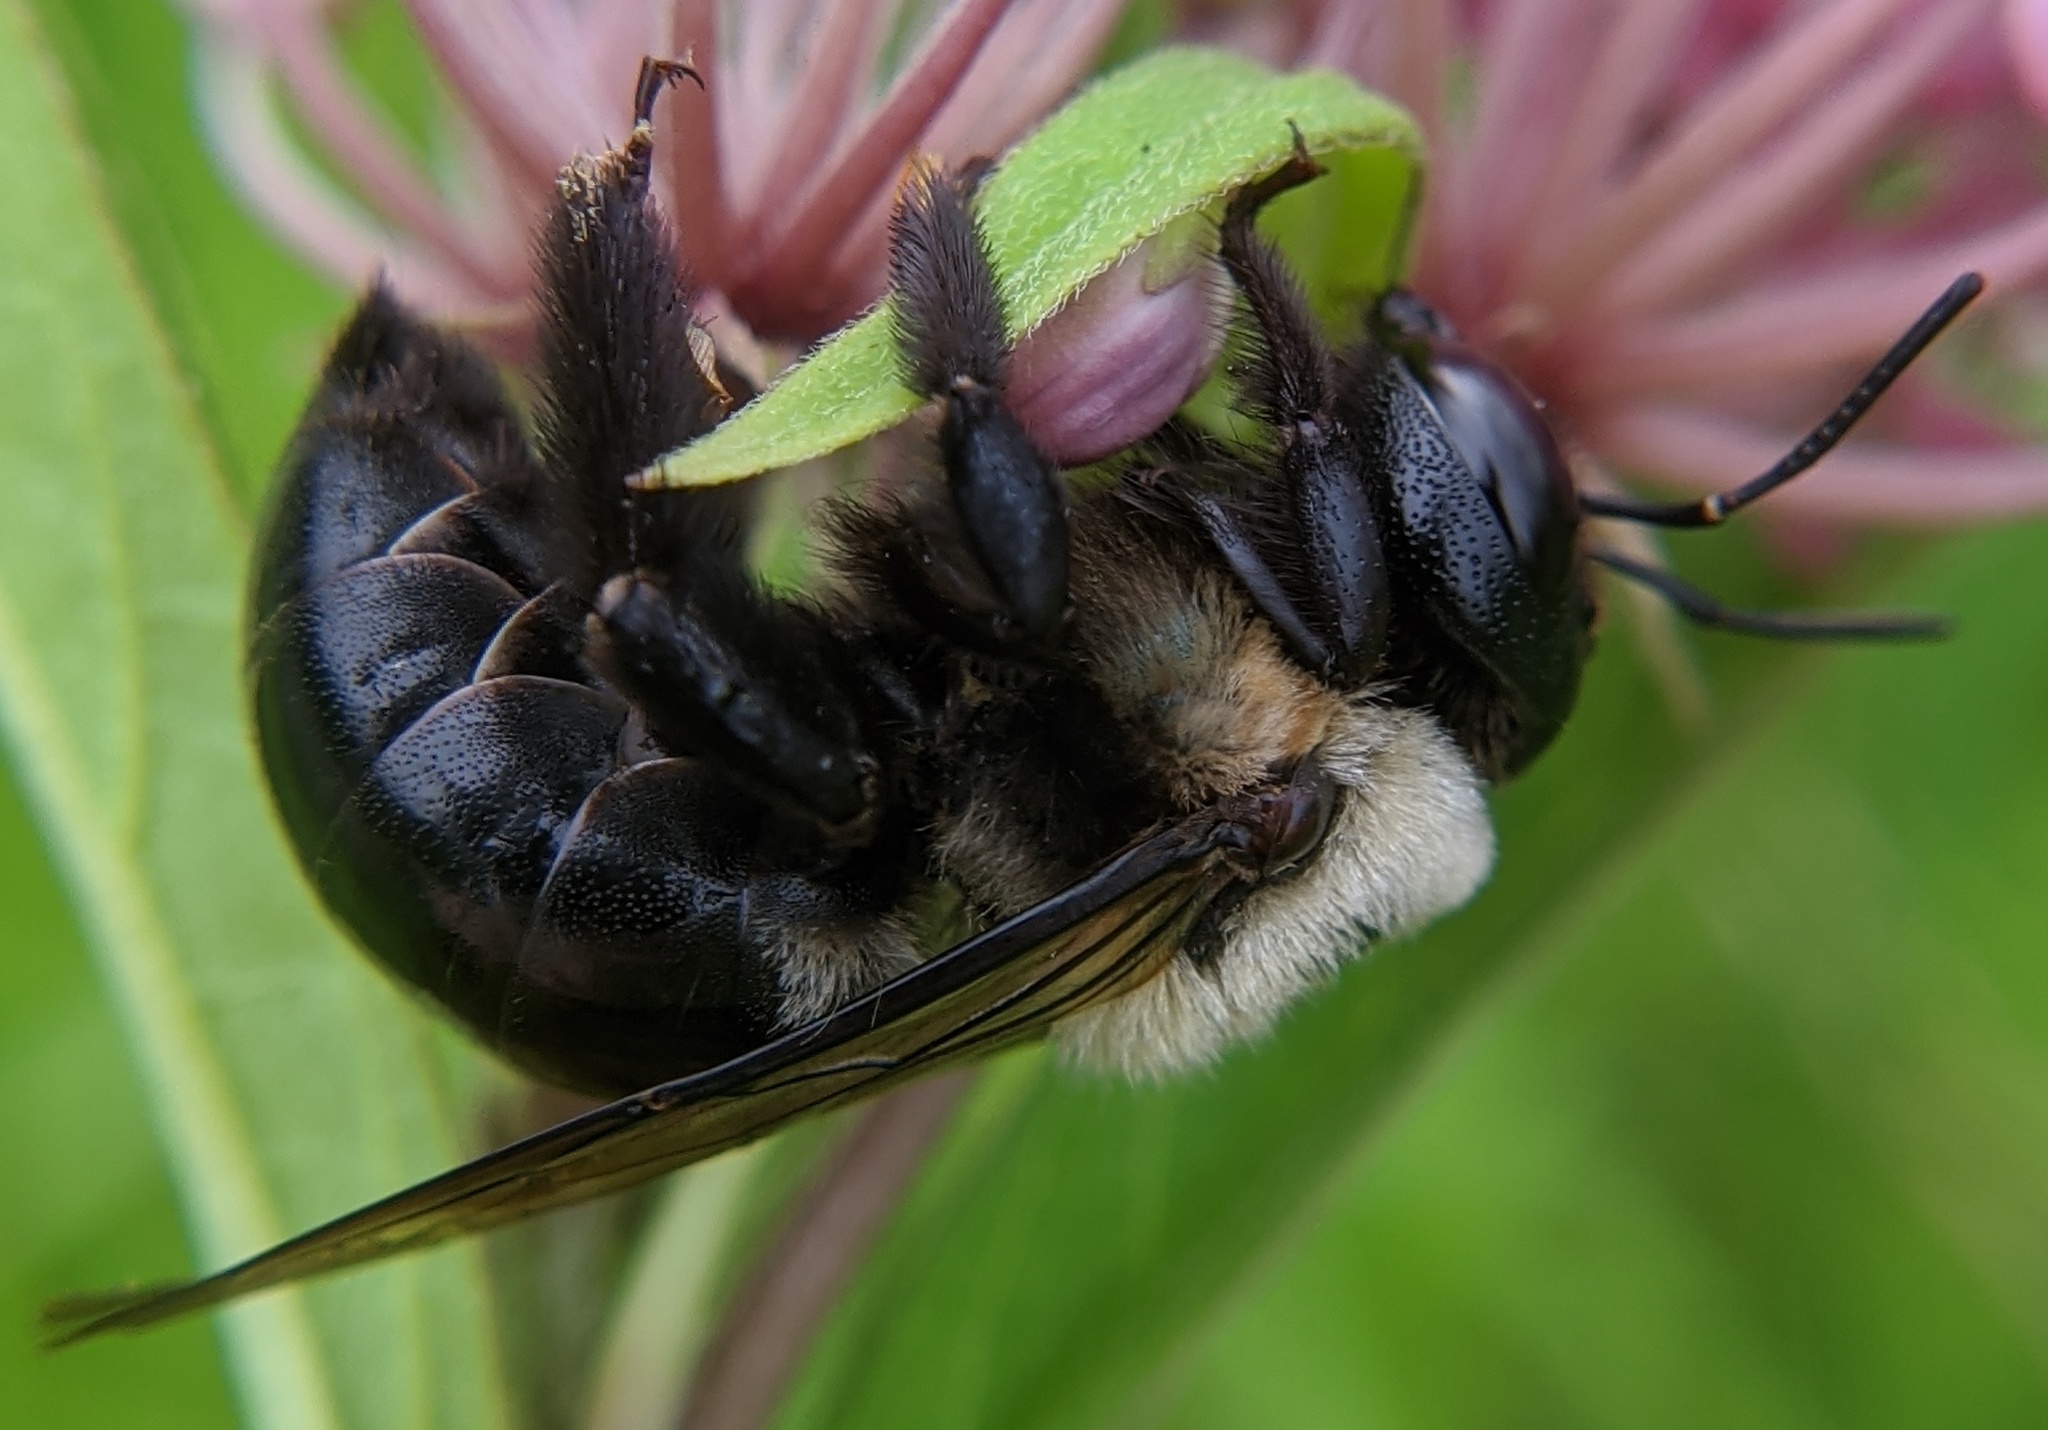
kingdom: Animalia
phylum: Arthropoda
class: Insecta
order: Hymenoptera
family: Apidae
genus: Xylocopa
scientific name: Xylocopa virginica
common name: Carpenter bee
